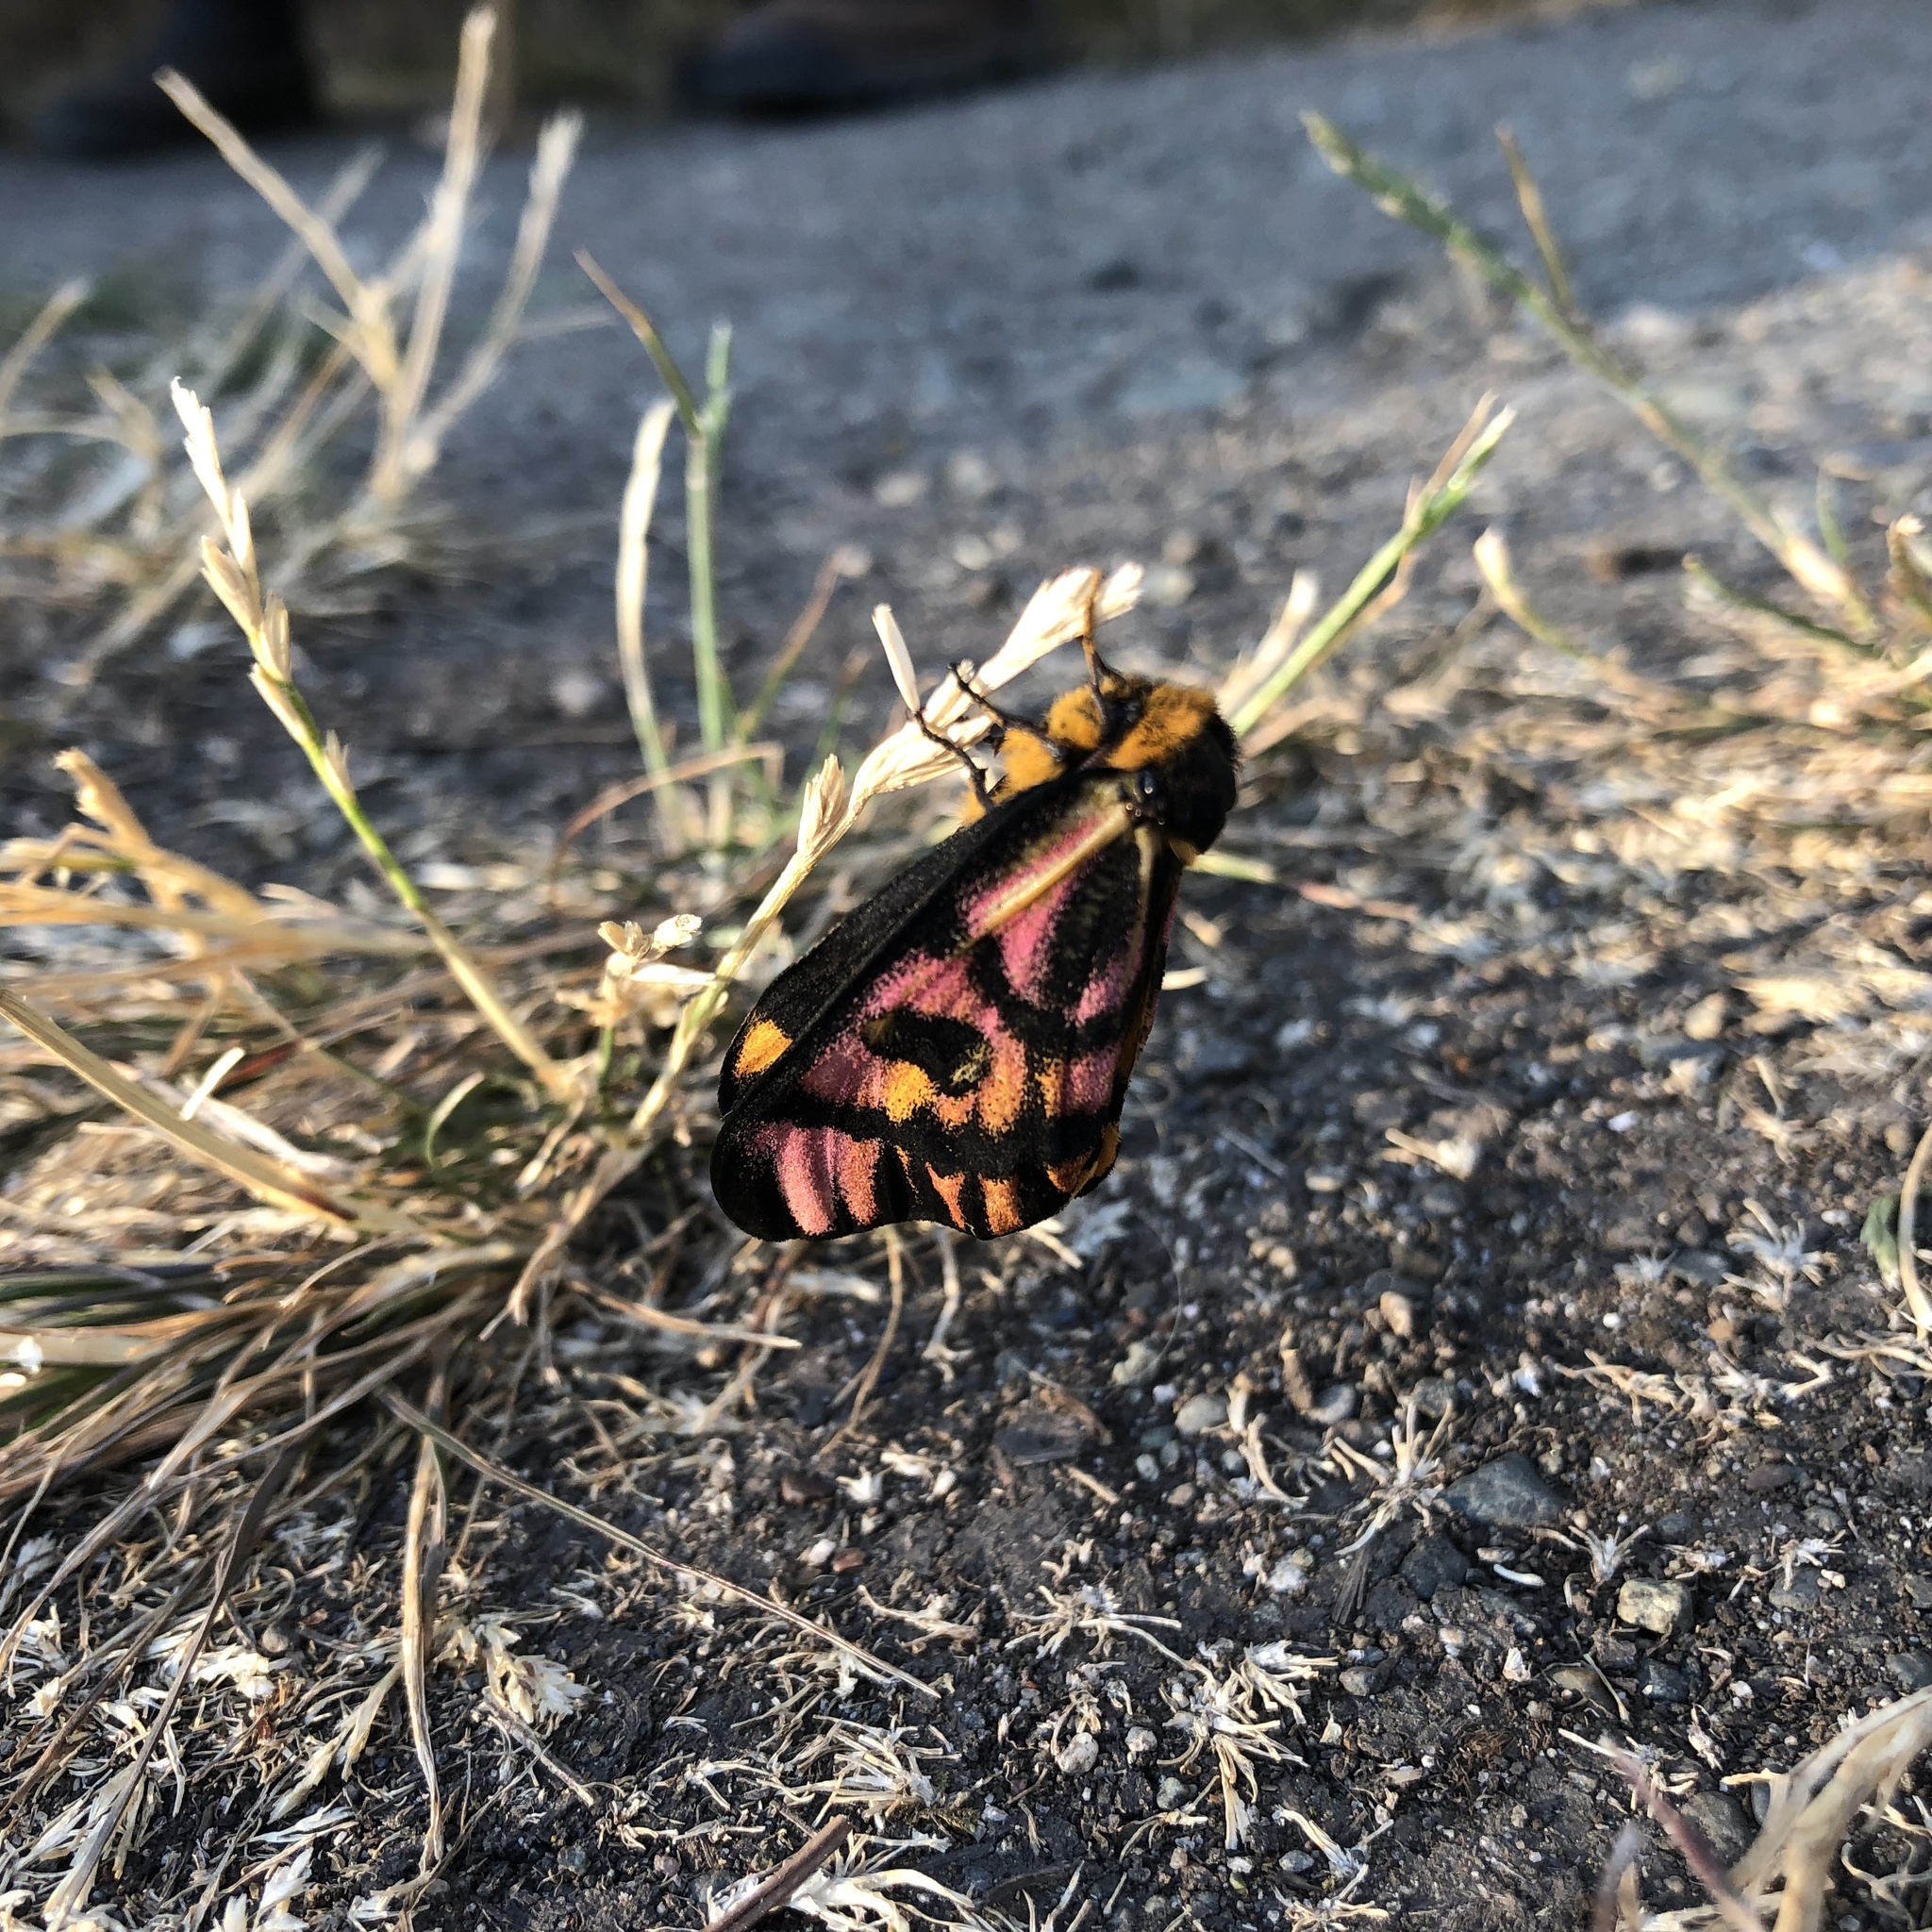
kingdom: Animalia
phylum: Arthropoda
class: Insecta
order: Lepidoptera
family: Saturniidae
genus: Hemileuca
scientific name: Hemileuca eglanterina
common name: Western sheepmoth
